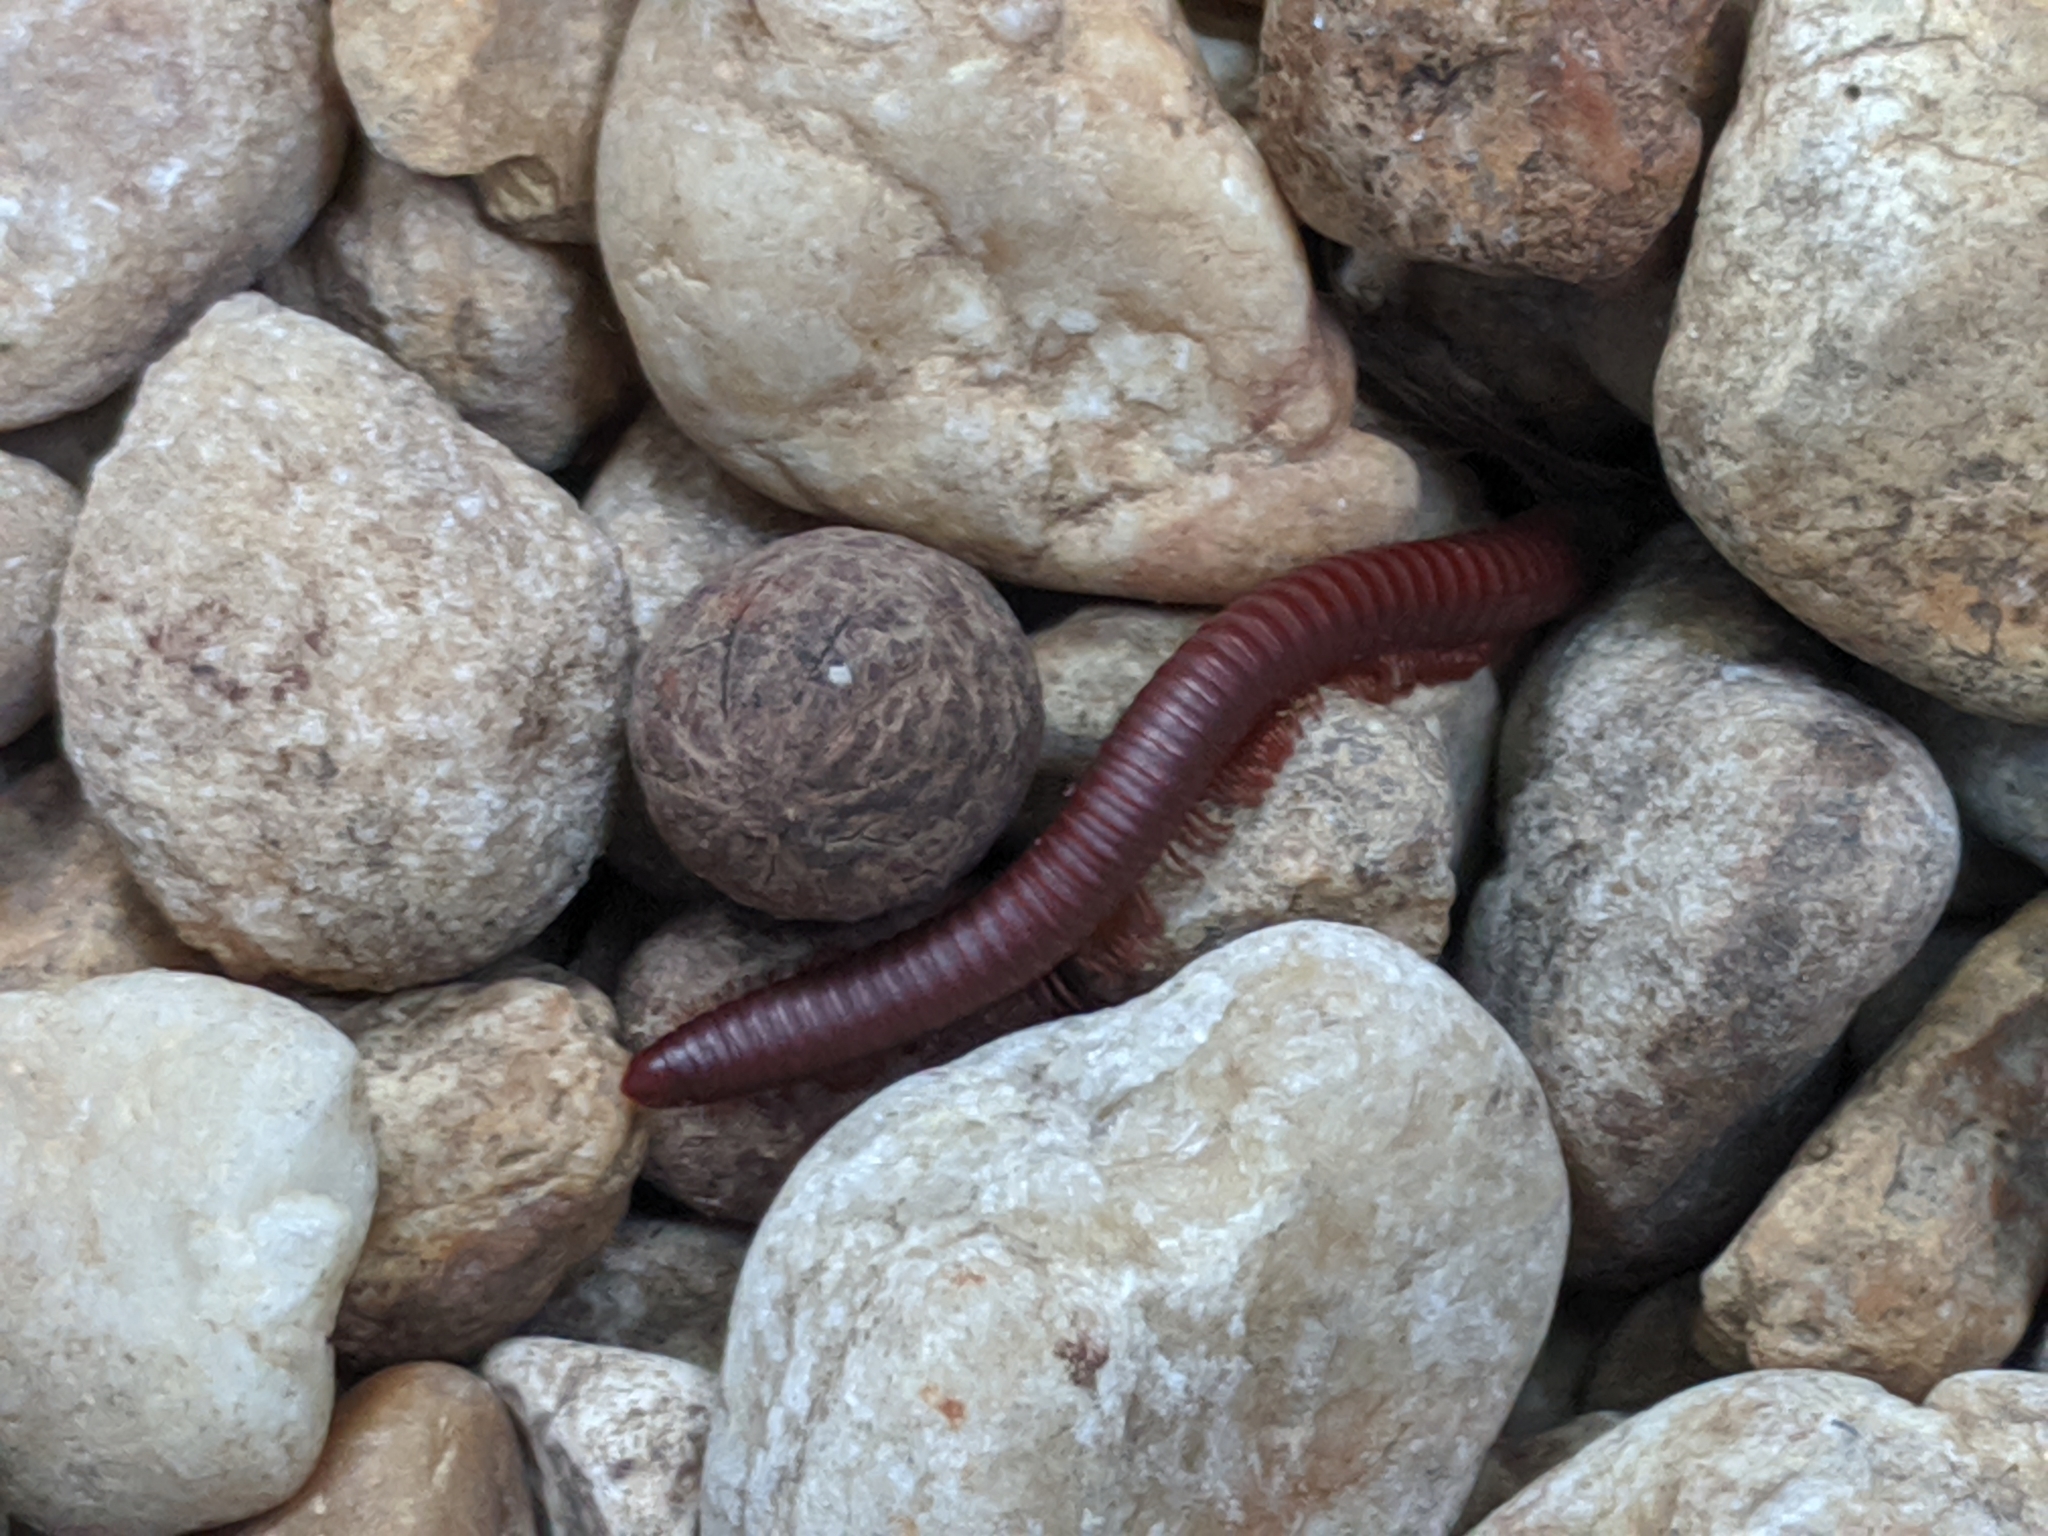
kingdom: Animalia
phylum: Arthropoda
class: Diplopoda
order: Spirobolida
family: Pachybolidae
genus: Trigoniulus
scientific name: Trigoniulus corallinus
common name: Millipede
